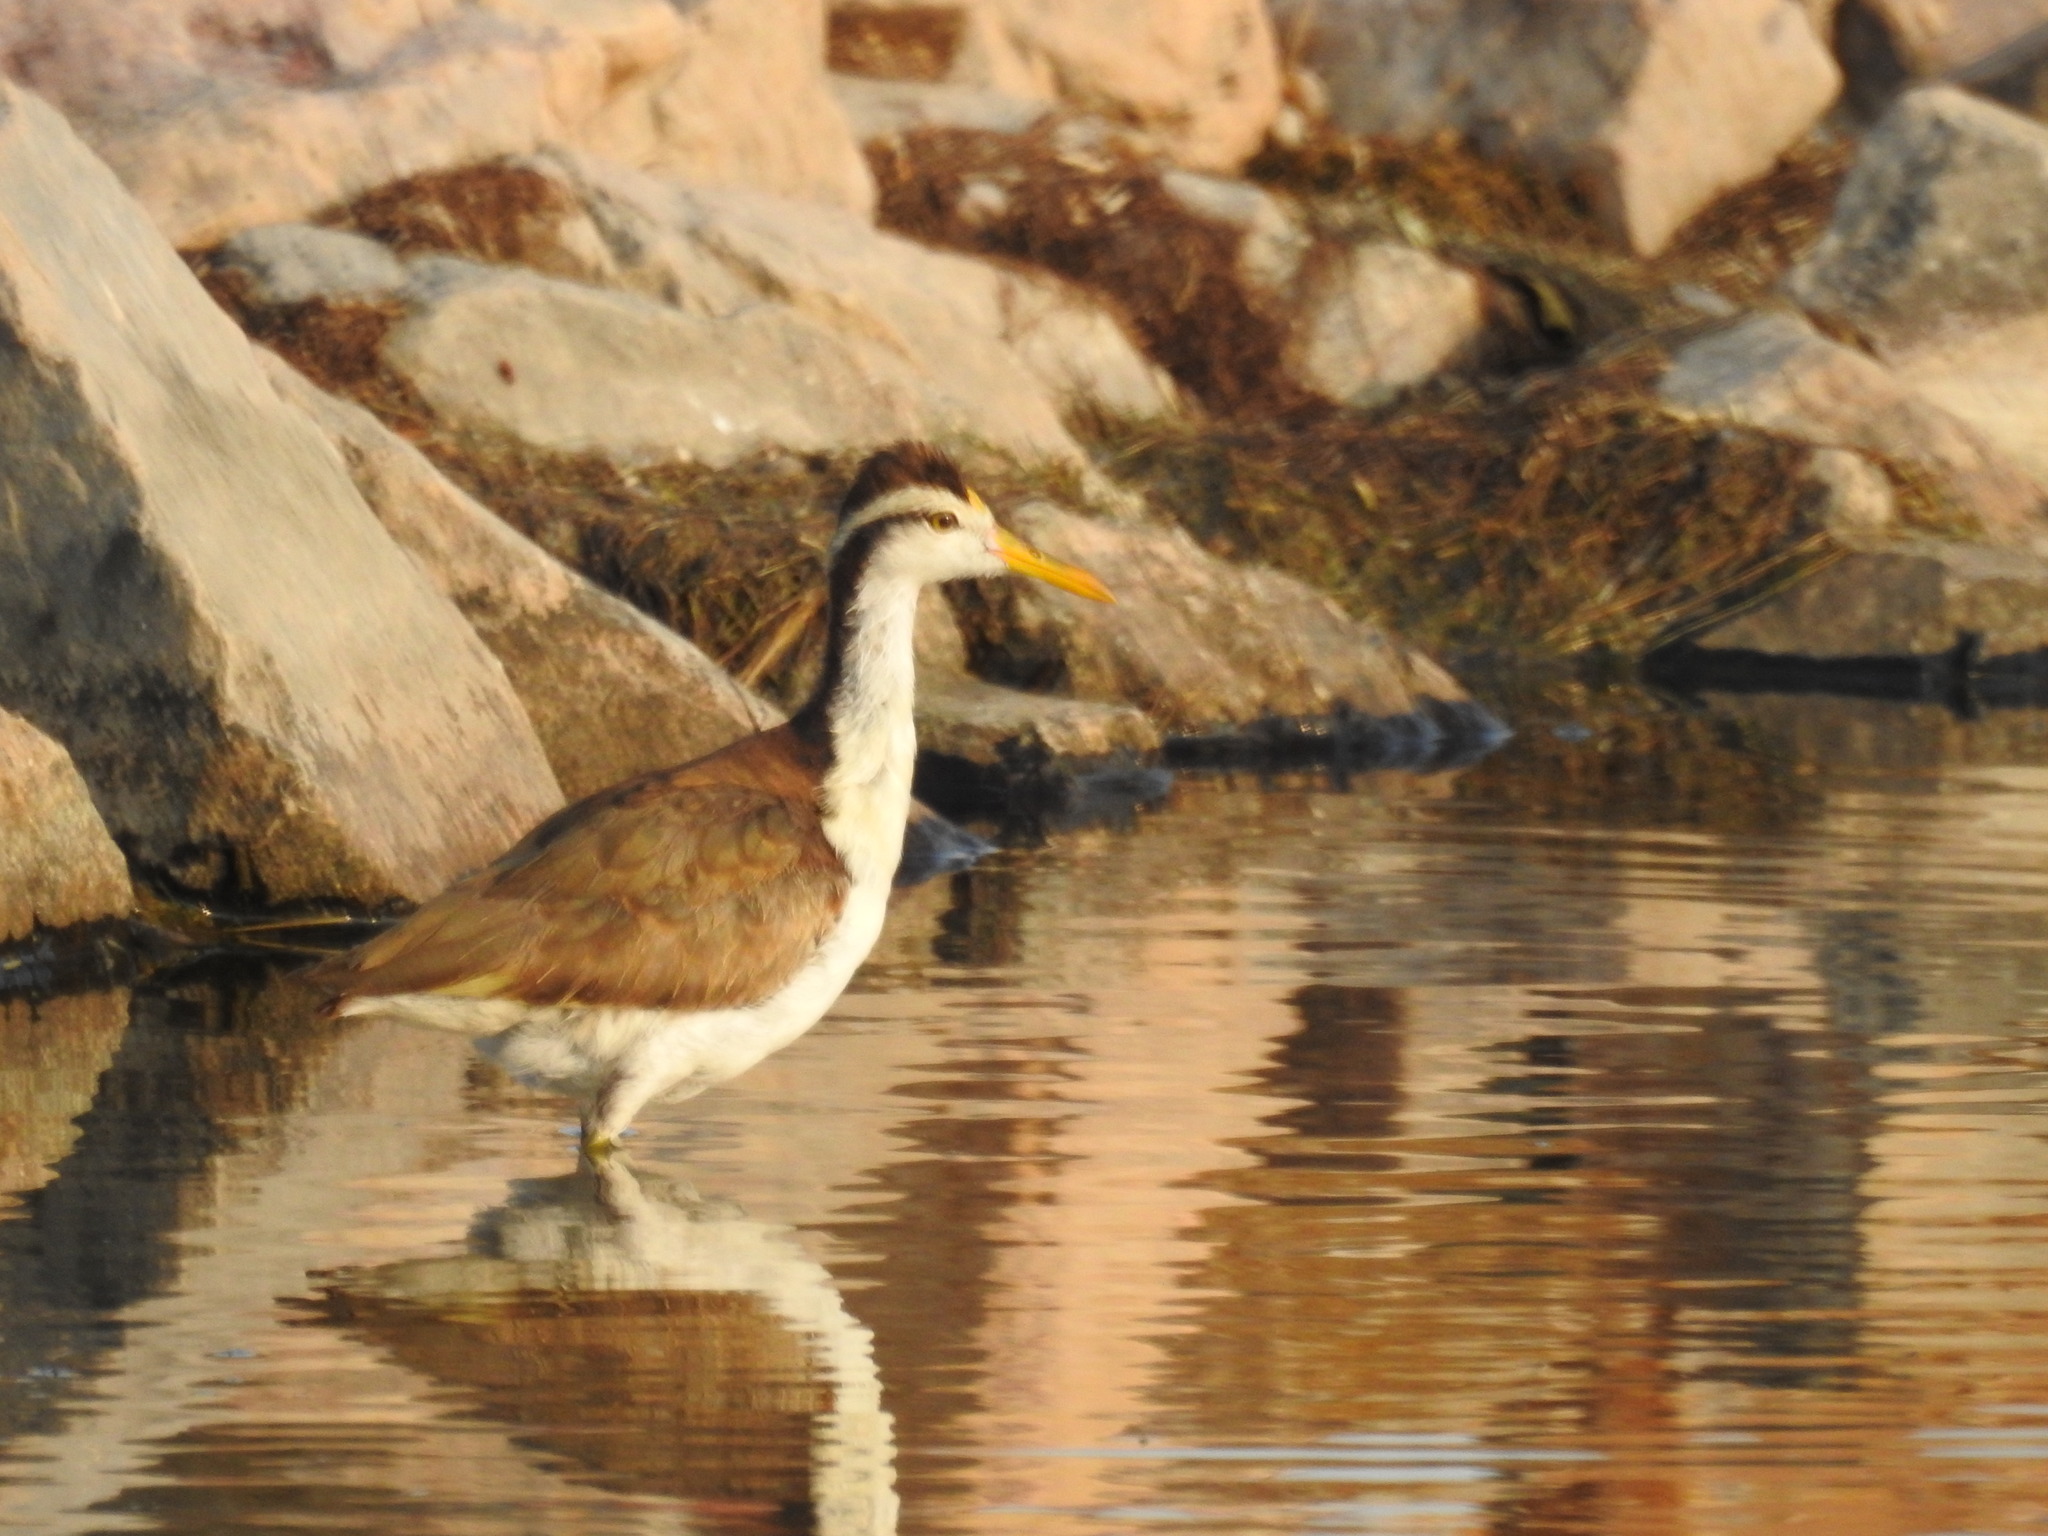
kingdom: Animalia
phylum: Chordata
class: Aves
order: Charadriiformes
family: Jacanidae
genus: Jacana
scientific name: Jacana spinosa
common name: Northern jacana
